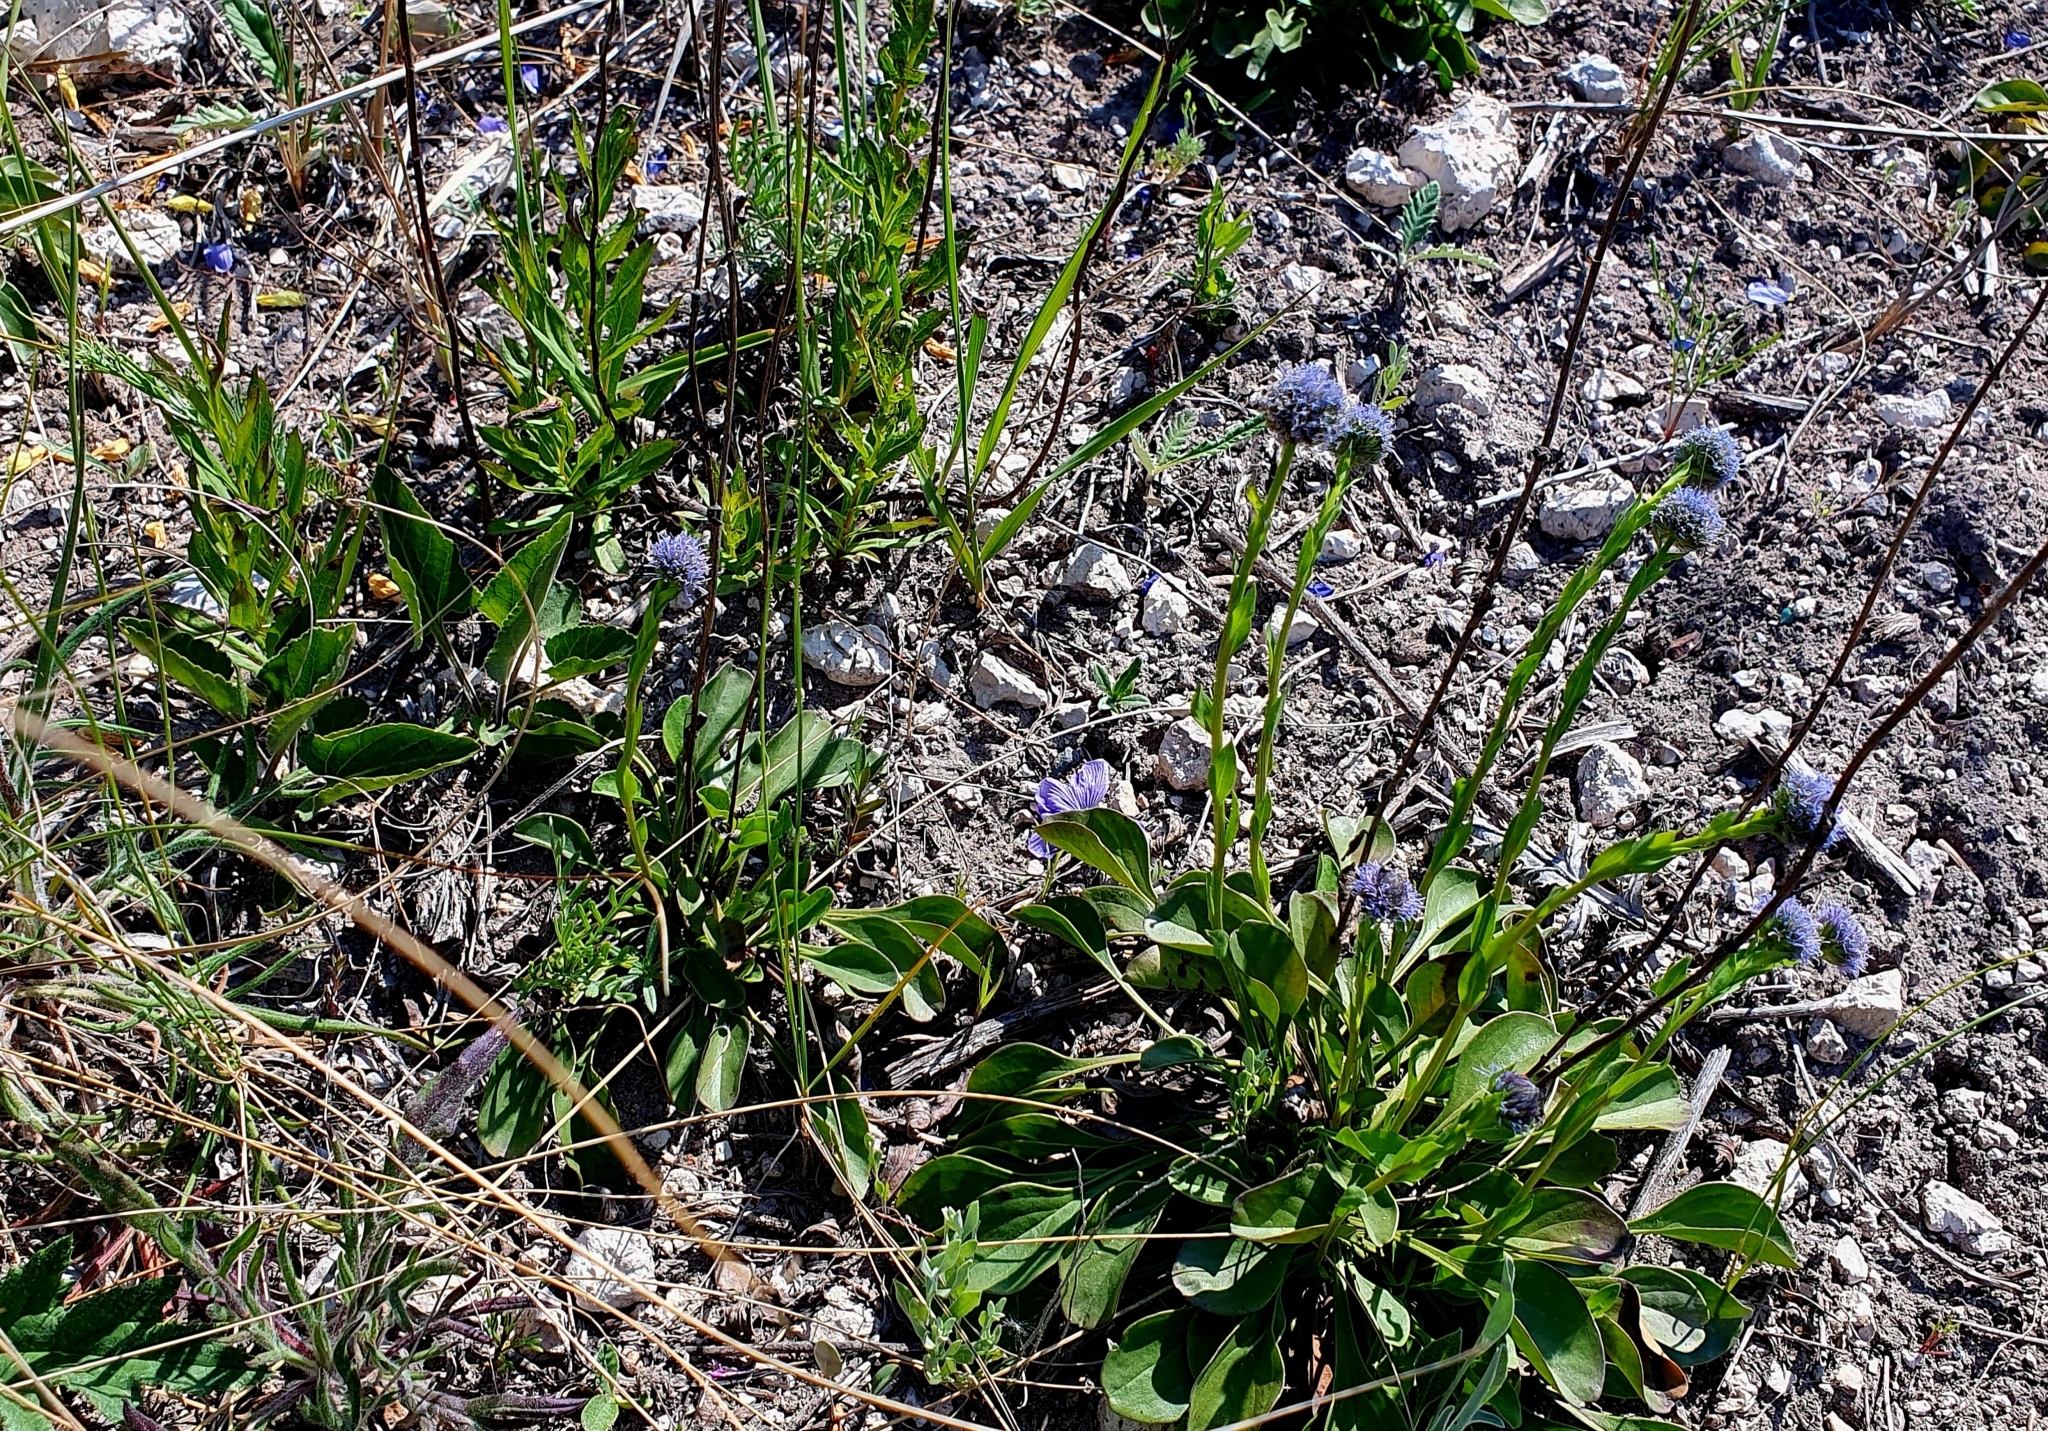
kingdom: Plantae
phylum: Tracheophyta
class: Magnoliopsida
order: Lamiales
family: Plantaginaceae
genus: Globularia
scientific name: Globularia bisnagarica
